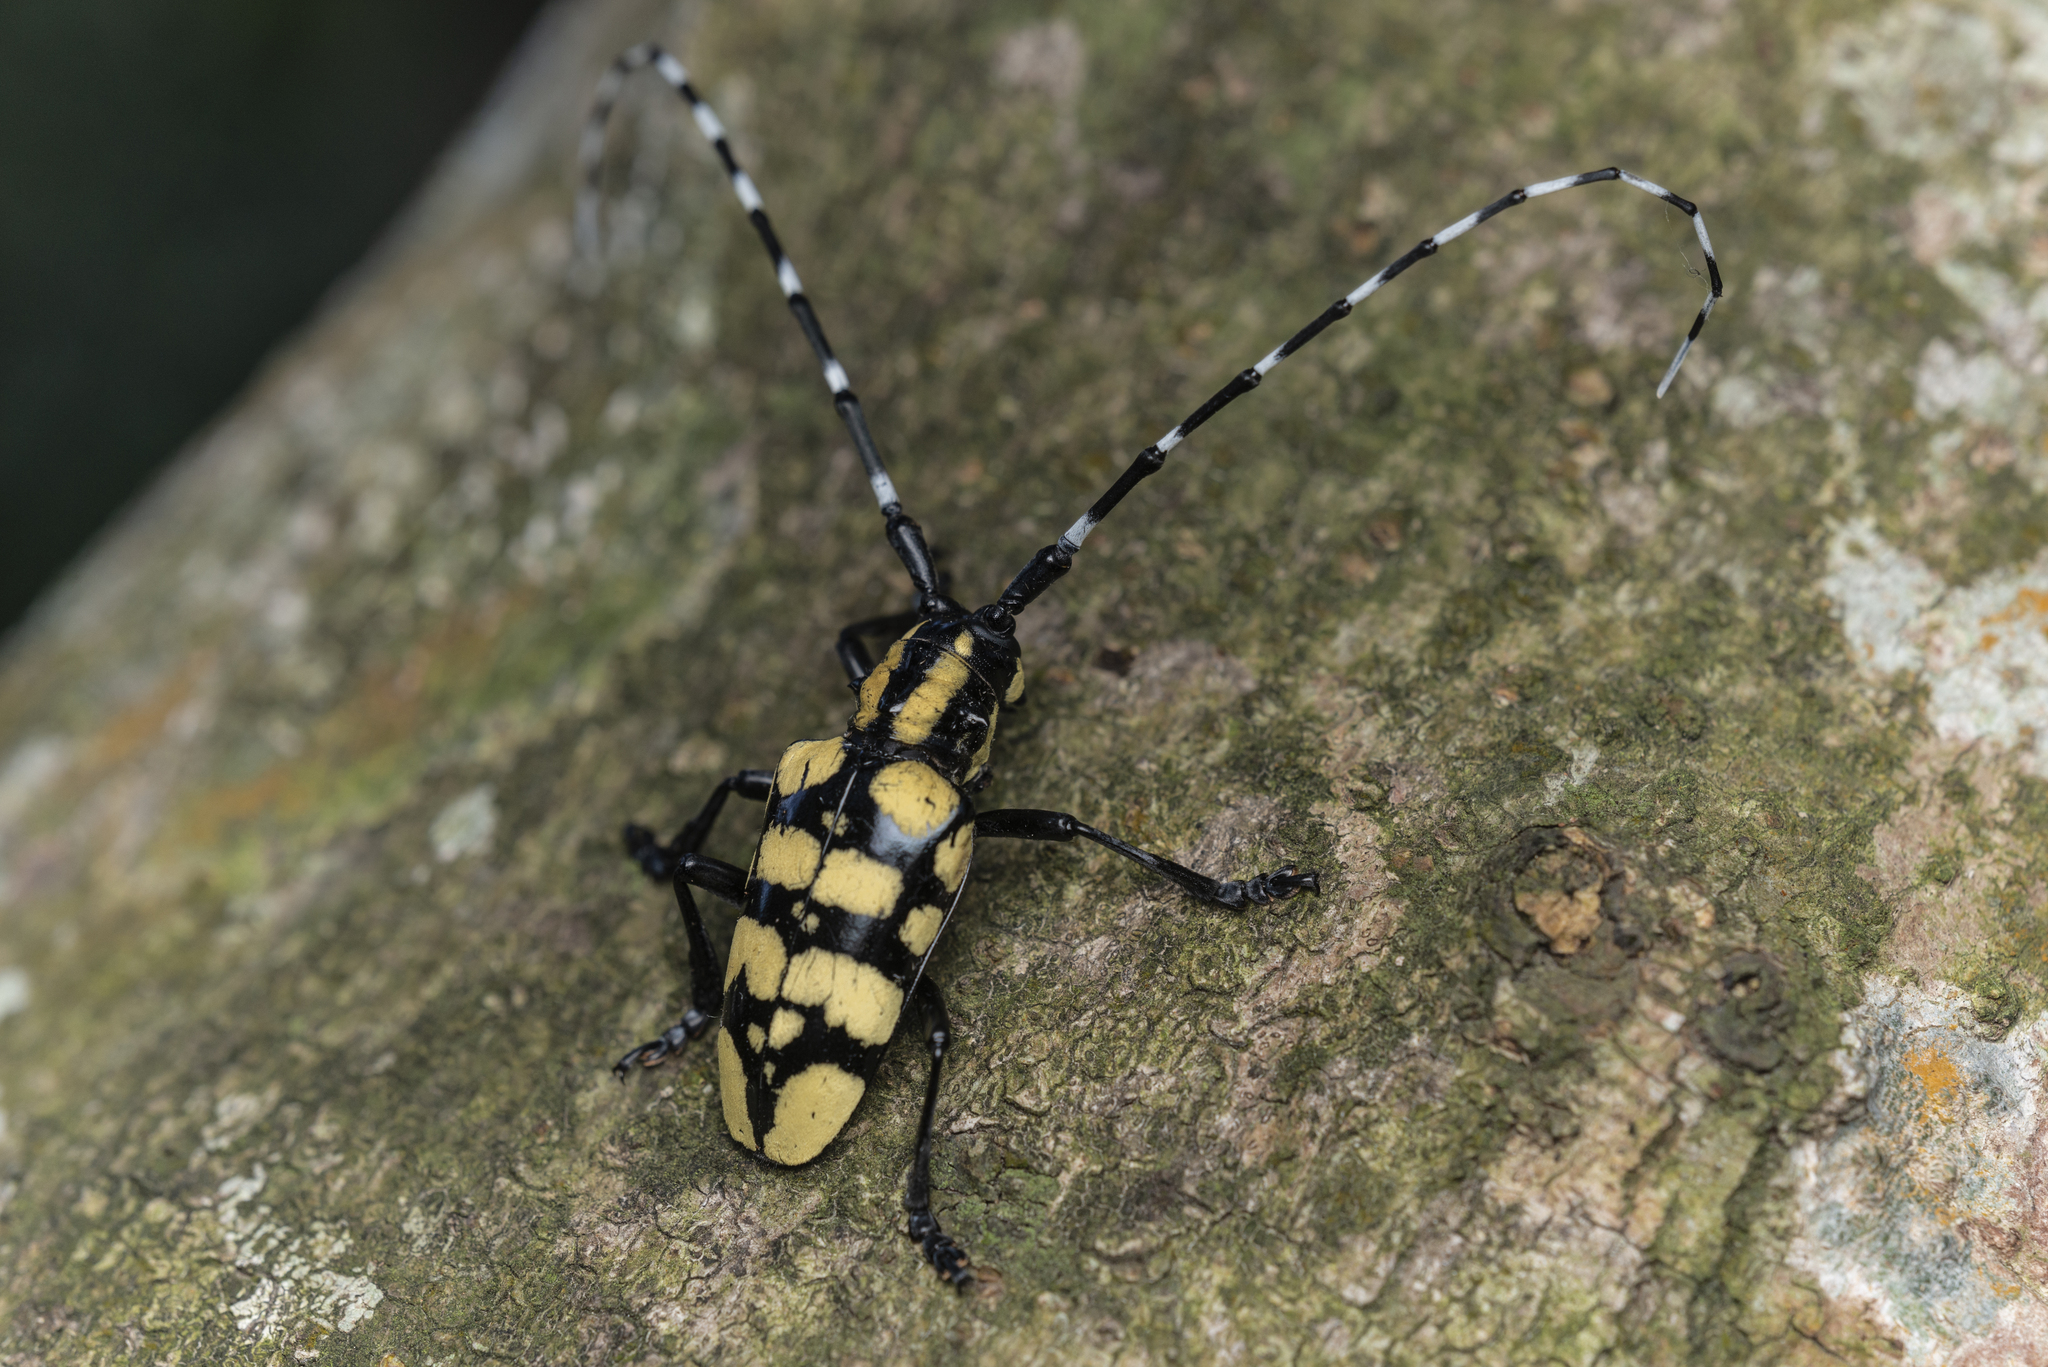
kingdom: Animalia
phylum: Arthropoda
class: Insecta
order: Coleoptera
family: Cerambycidae
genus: Anoplophora
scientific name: Anoplophora horsfieldii
